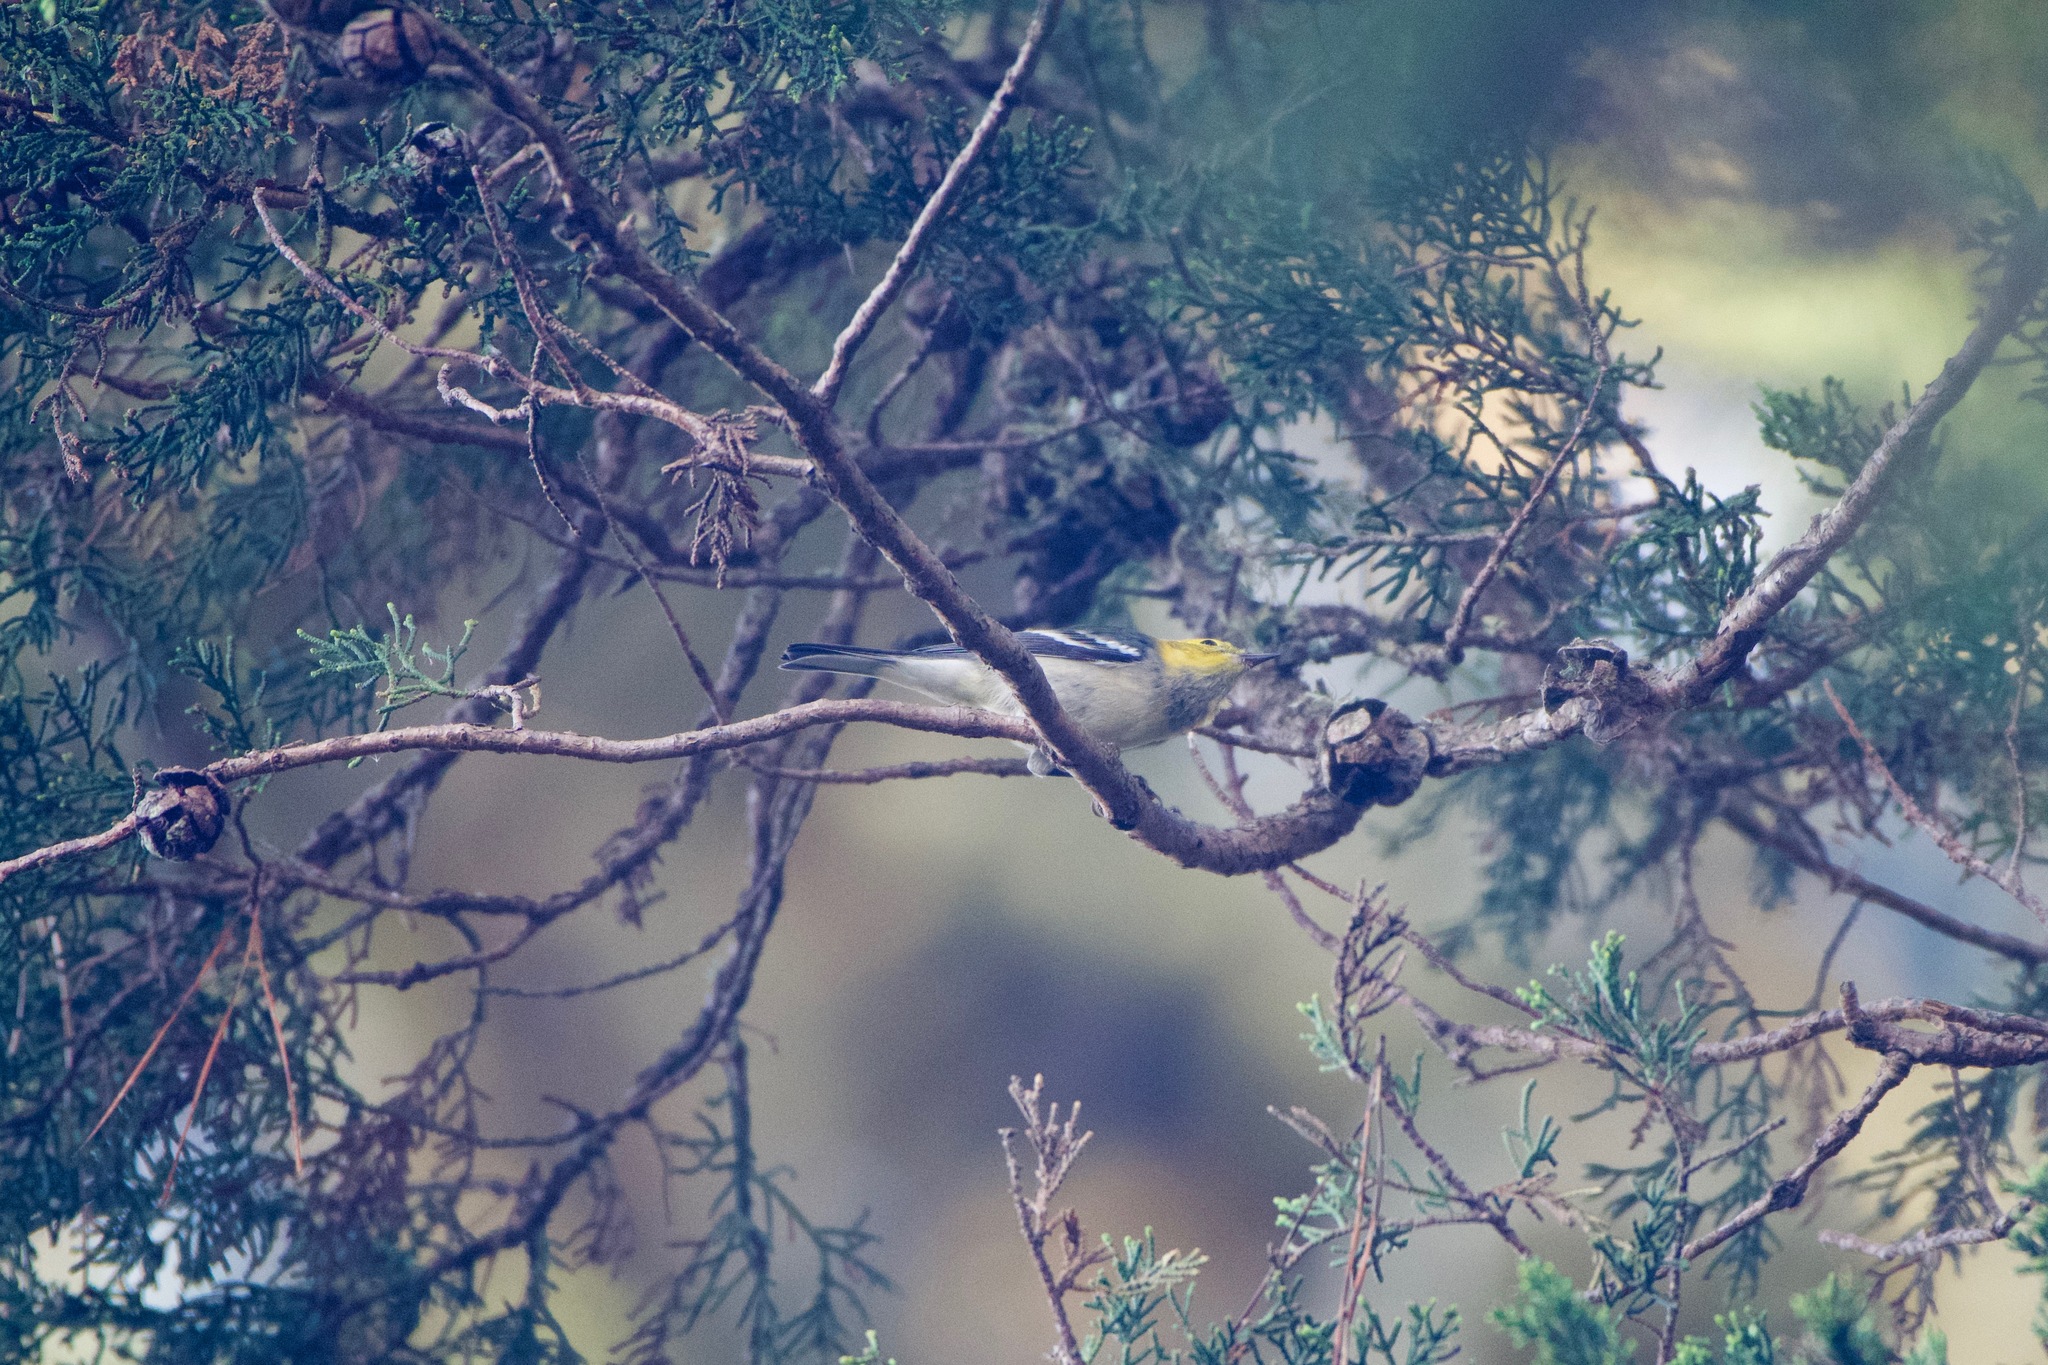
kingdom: Animalia
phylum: Chordata
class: Aves
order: Passeriformes
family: Parulidae
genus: Setophaga
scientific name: Setophaga occidentalis
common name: Hermit warbler
